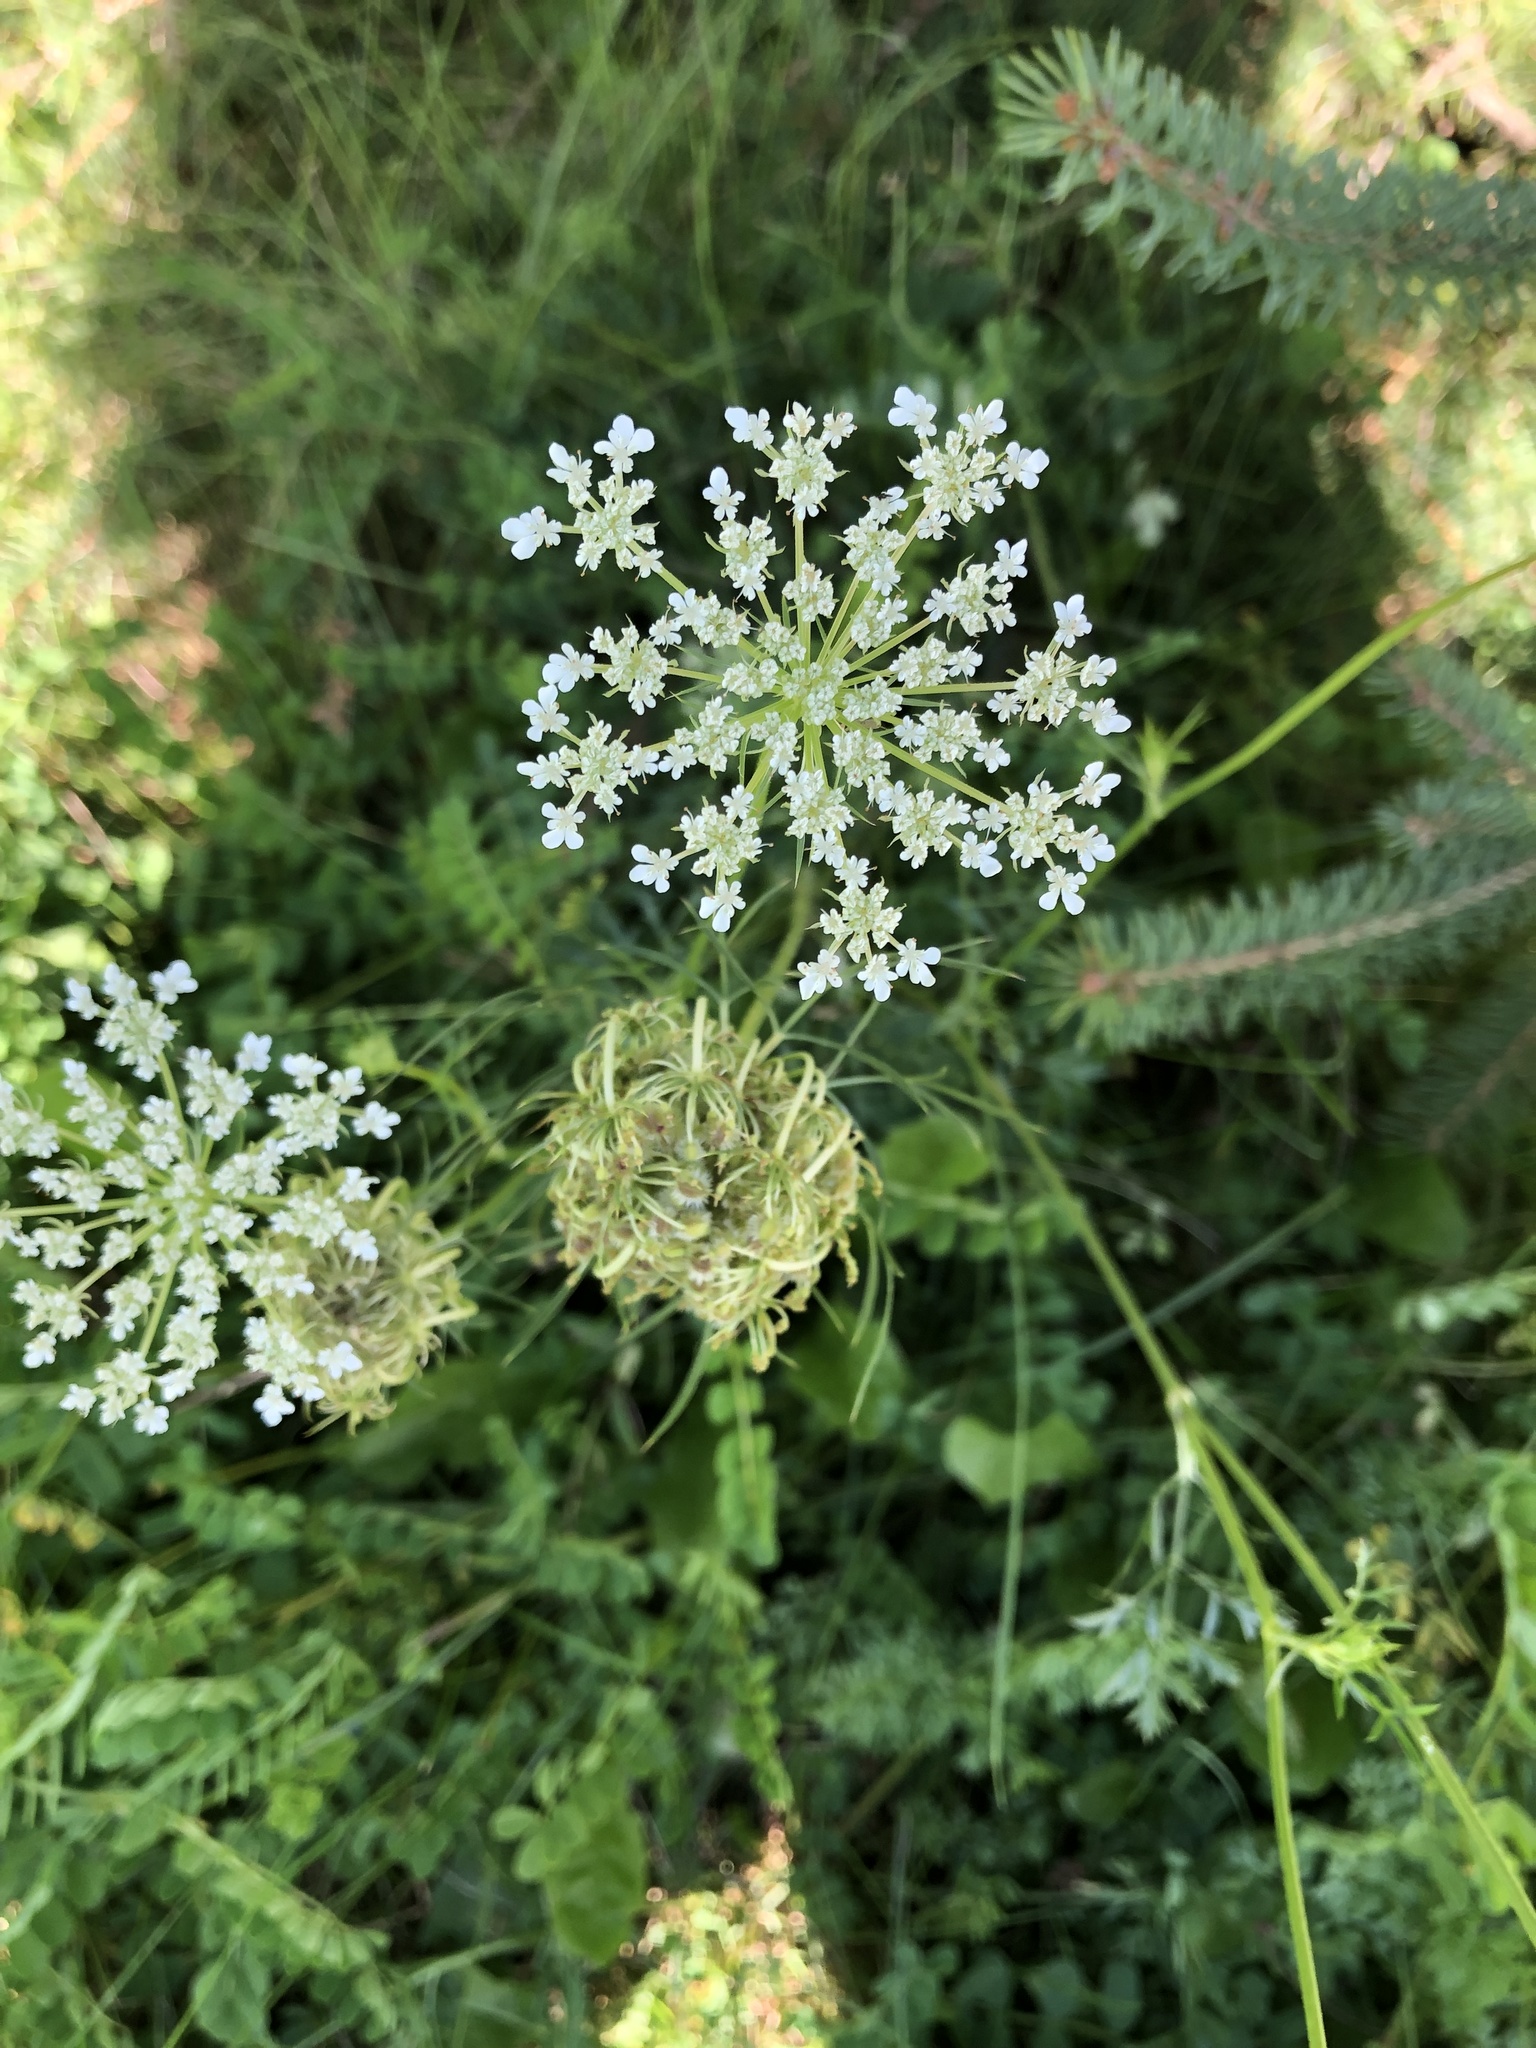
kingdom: Plantae
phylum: Tracheophyta
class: Magnoliopsida
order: Apiales
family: Apiaceae
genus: Daucus
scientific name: Daucus carota
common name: Wild carrot
